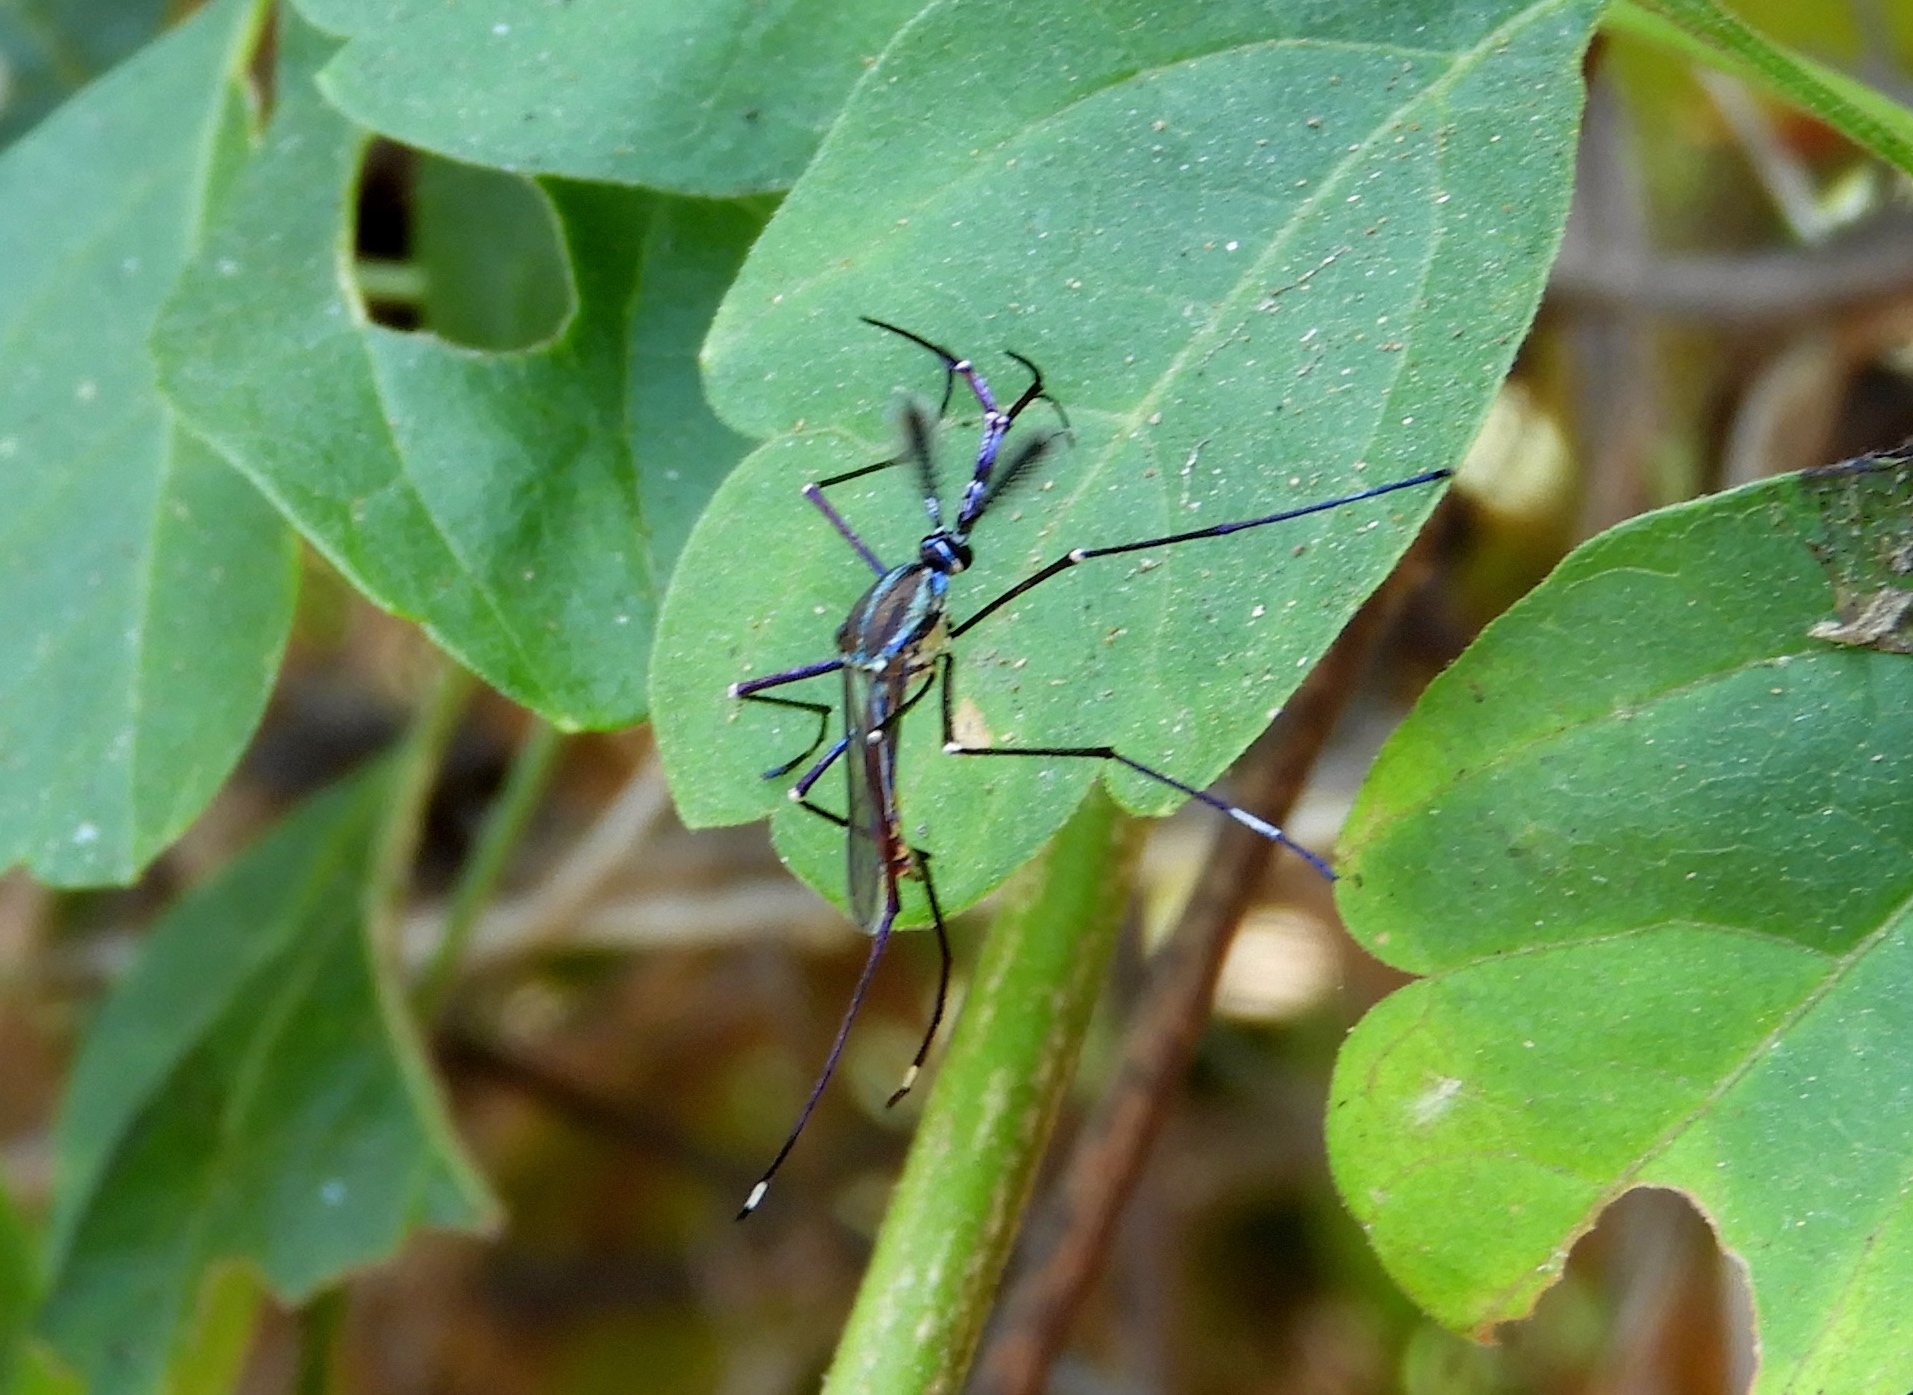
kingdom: Animalia
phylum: Arthropoda
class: Insecta
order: Diptera
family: Culicidae
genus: Toxorhynchites
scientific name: Toxorhynchites rutilus
